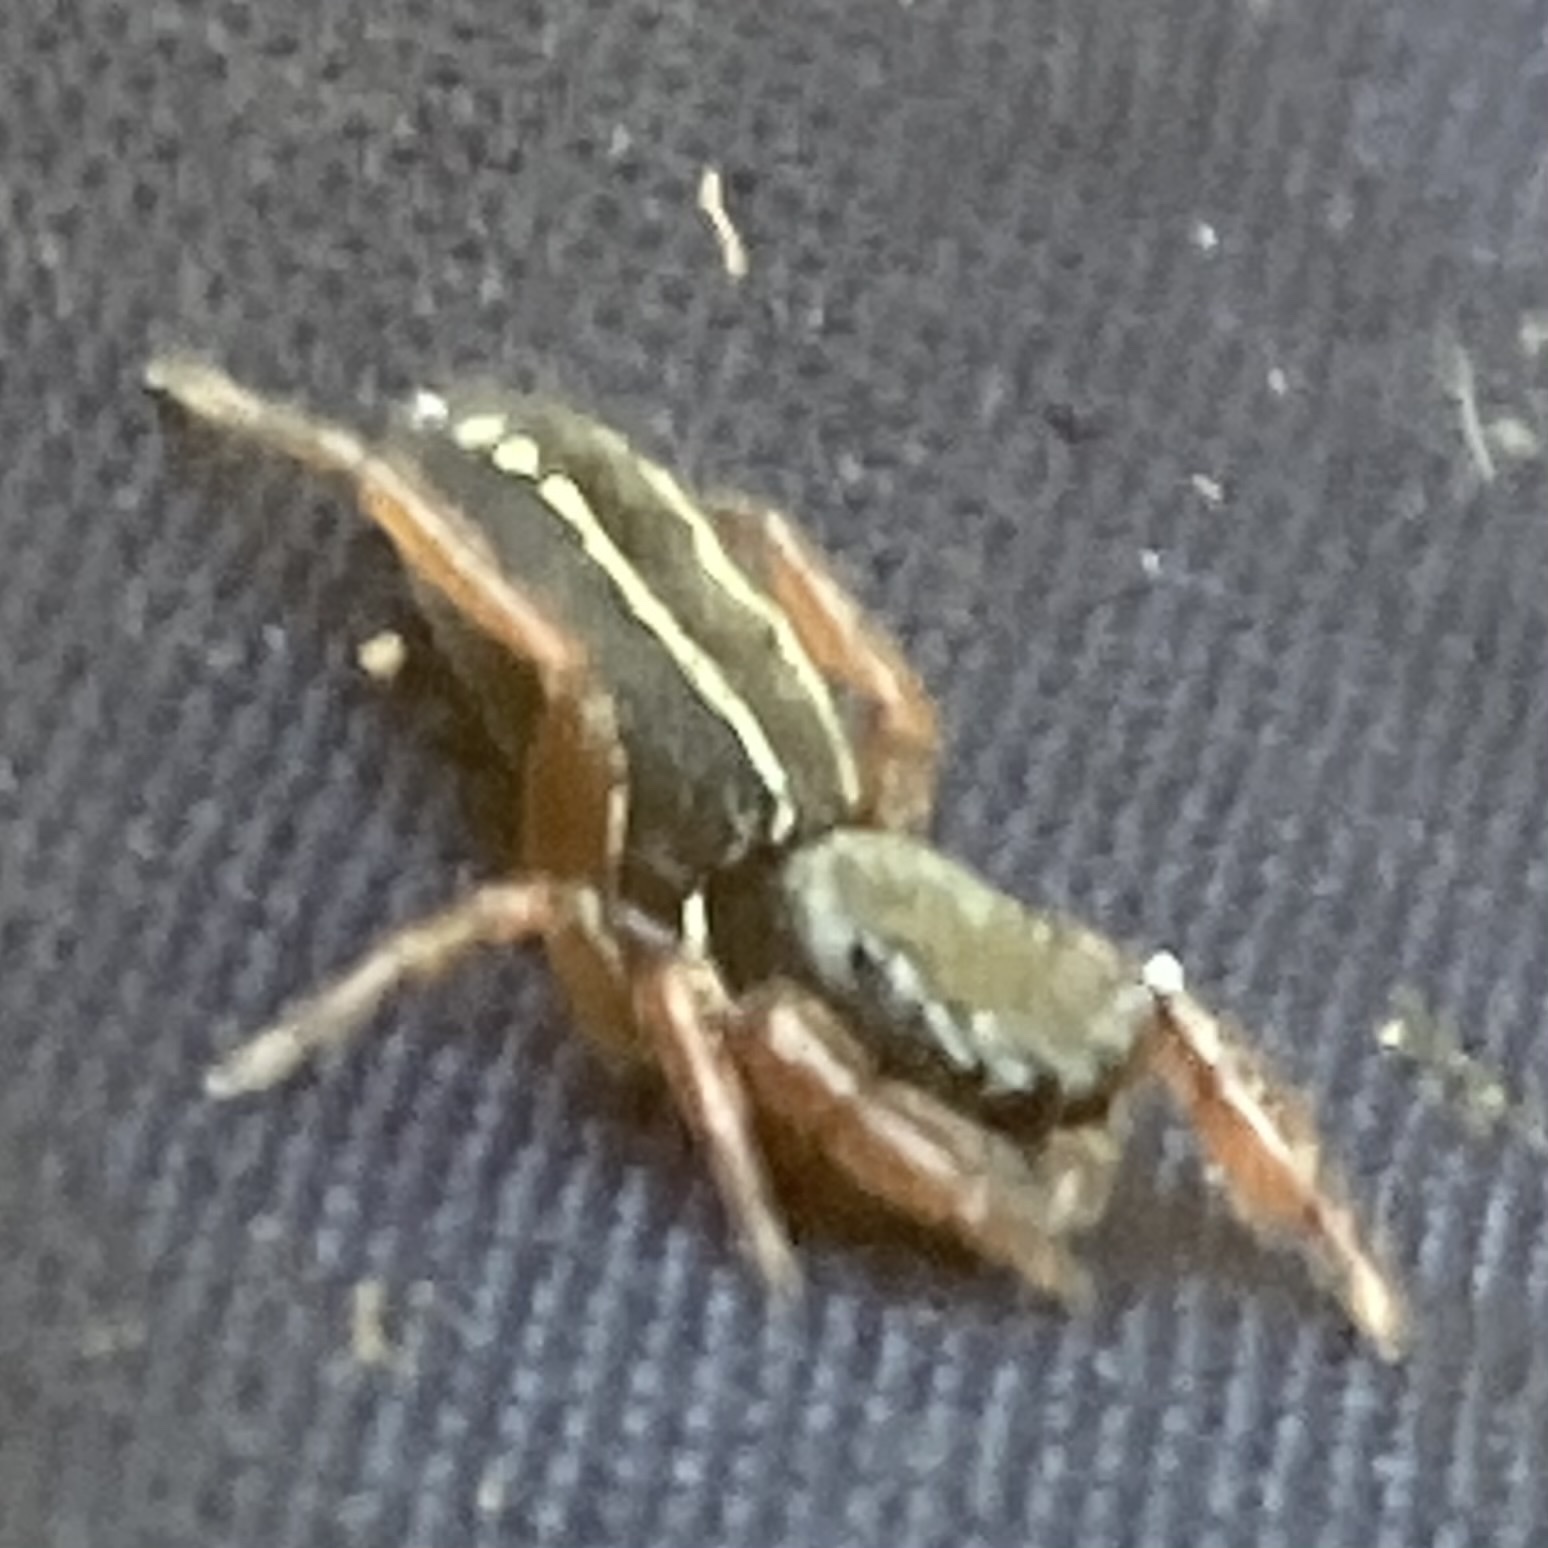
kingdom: Animalia
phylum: Arthropoda
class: Arachnida
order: Araneae
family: Salticidae
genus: Metacyrba
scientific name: Metacyrba taeniola
